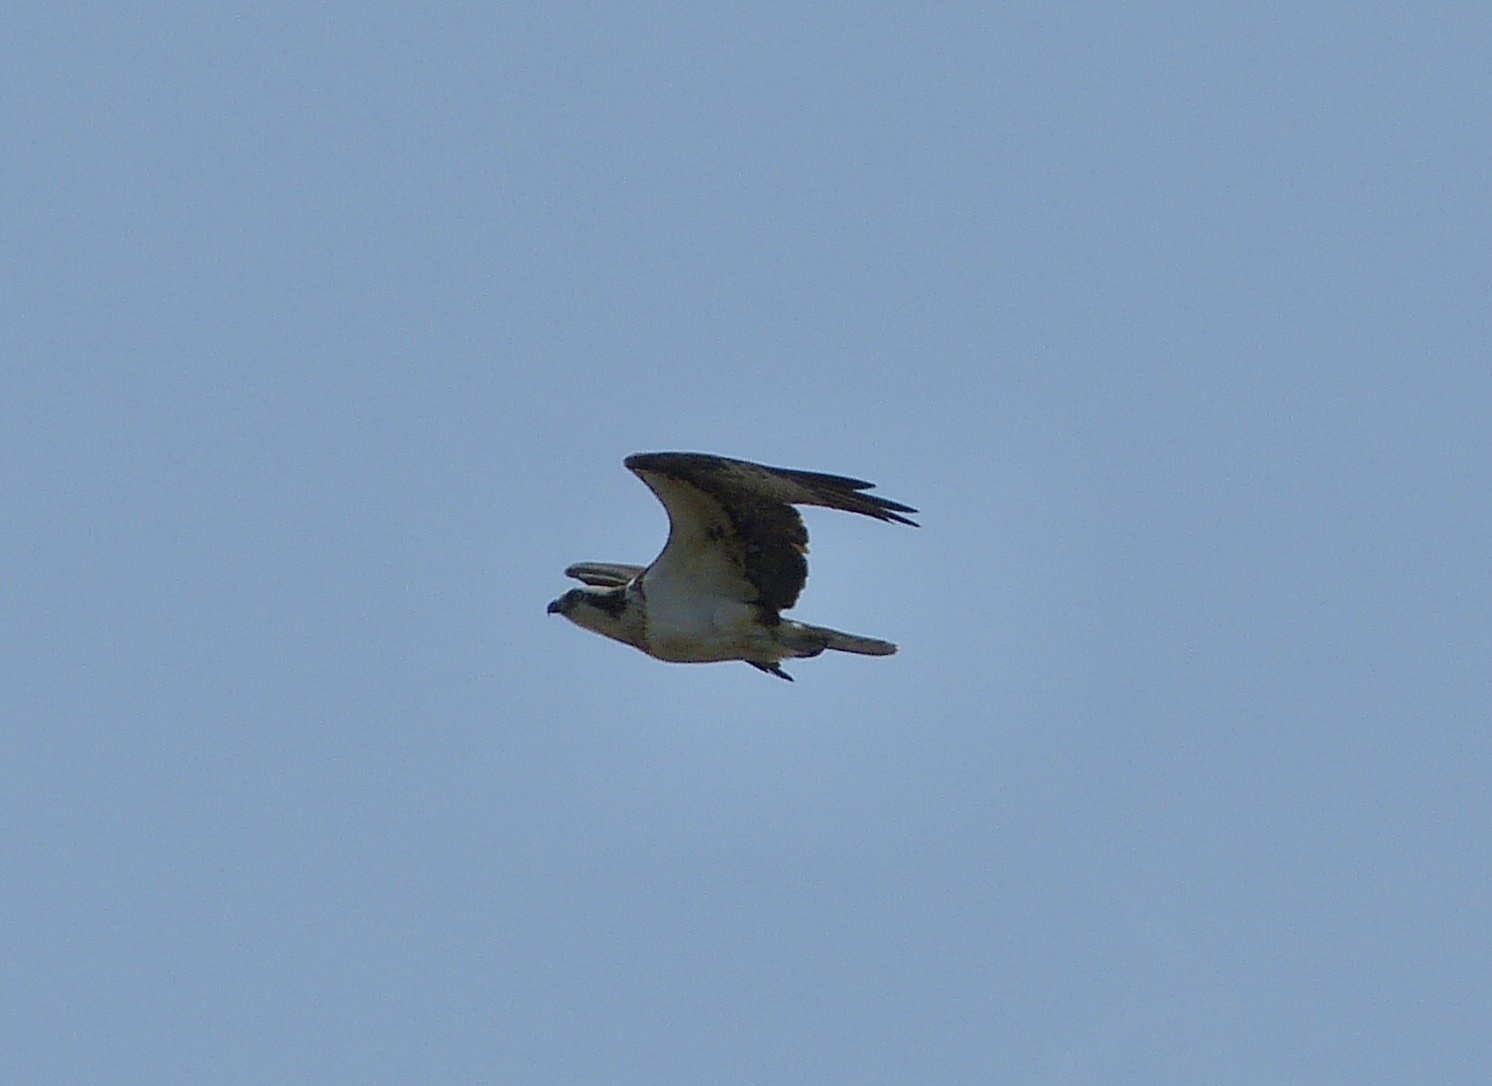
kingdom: Animalia
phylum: Chordata
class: Aves
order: Accipitriformes
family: Pandionidae
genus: Pandion
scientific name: Pandion haliaetus
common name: Osprey
